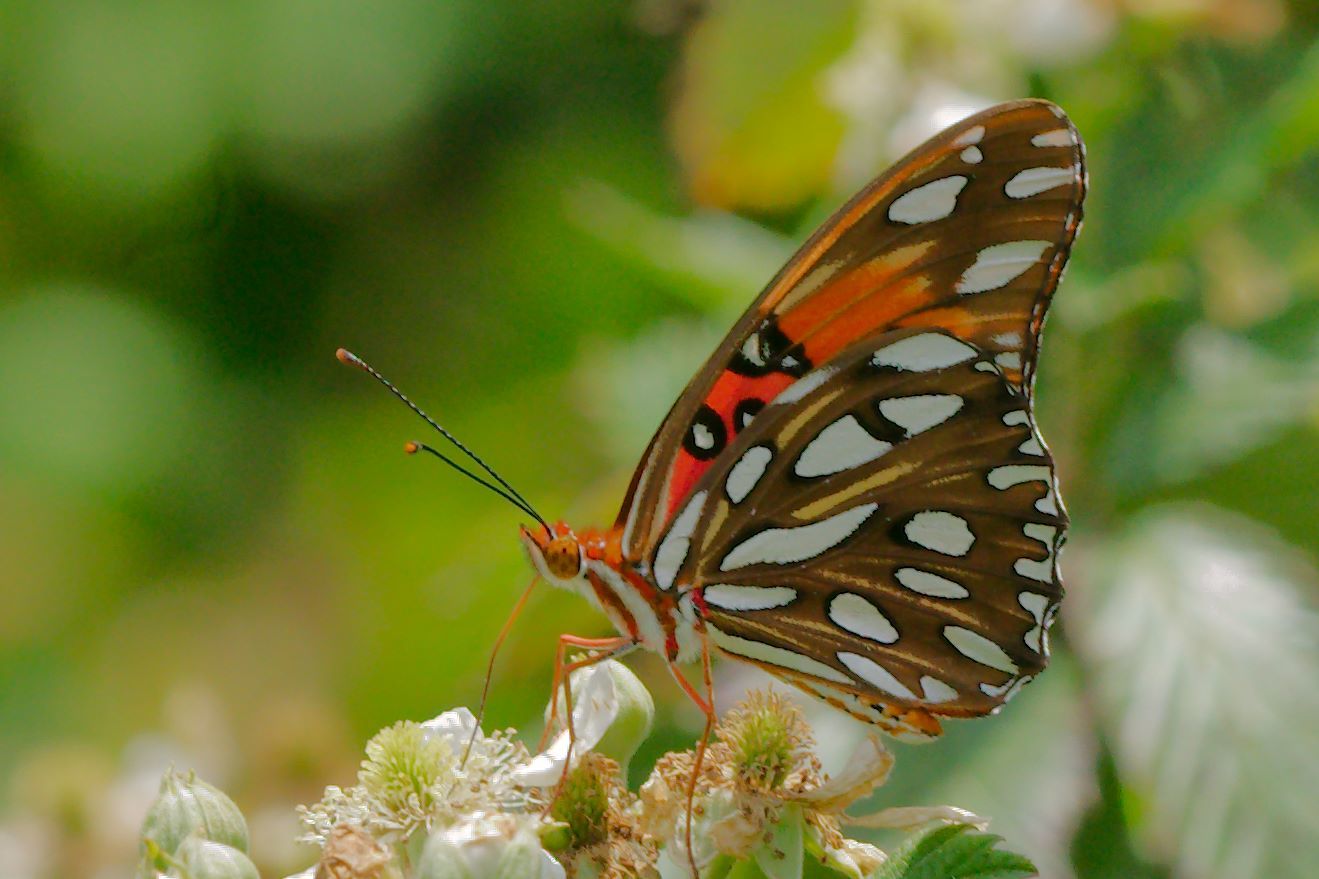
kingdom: Animalia
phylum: Arthropoda
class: Insecta
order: Lepidoptera
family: Nymphalidae
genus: Dione
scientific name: Dione vanillae
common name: Gulf fritillary
